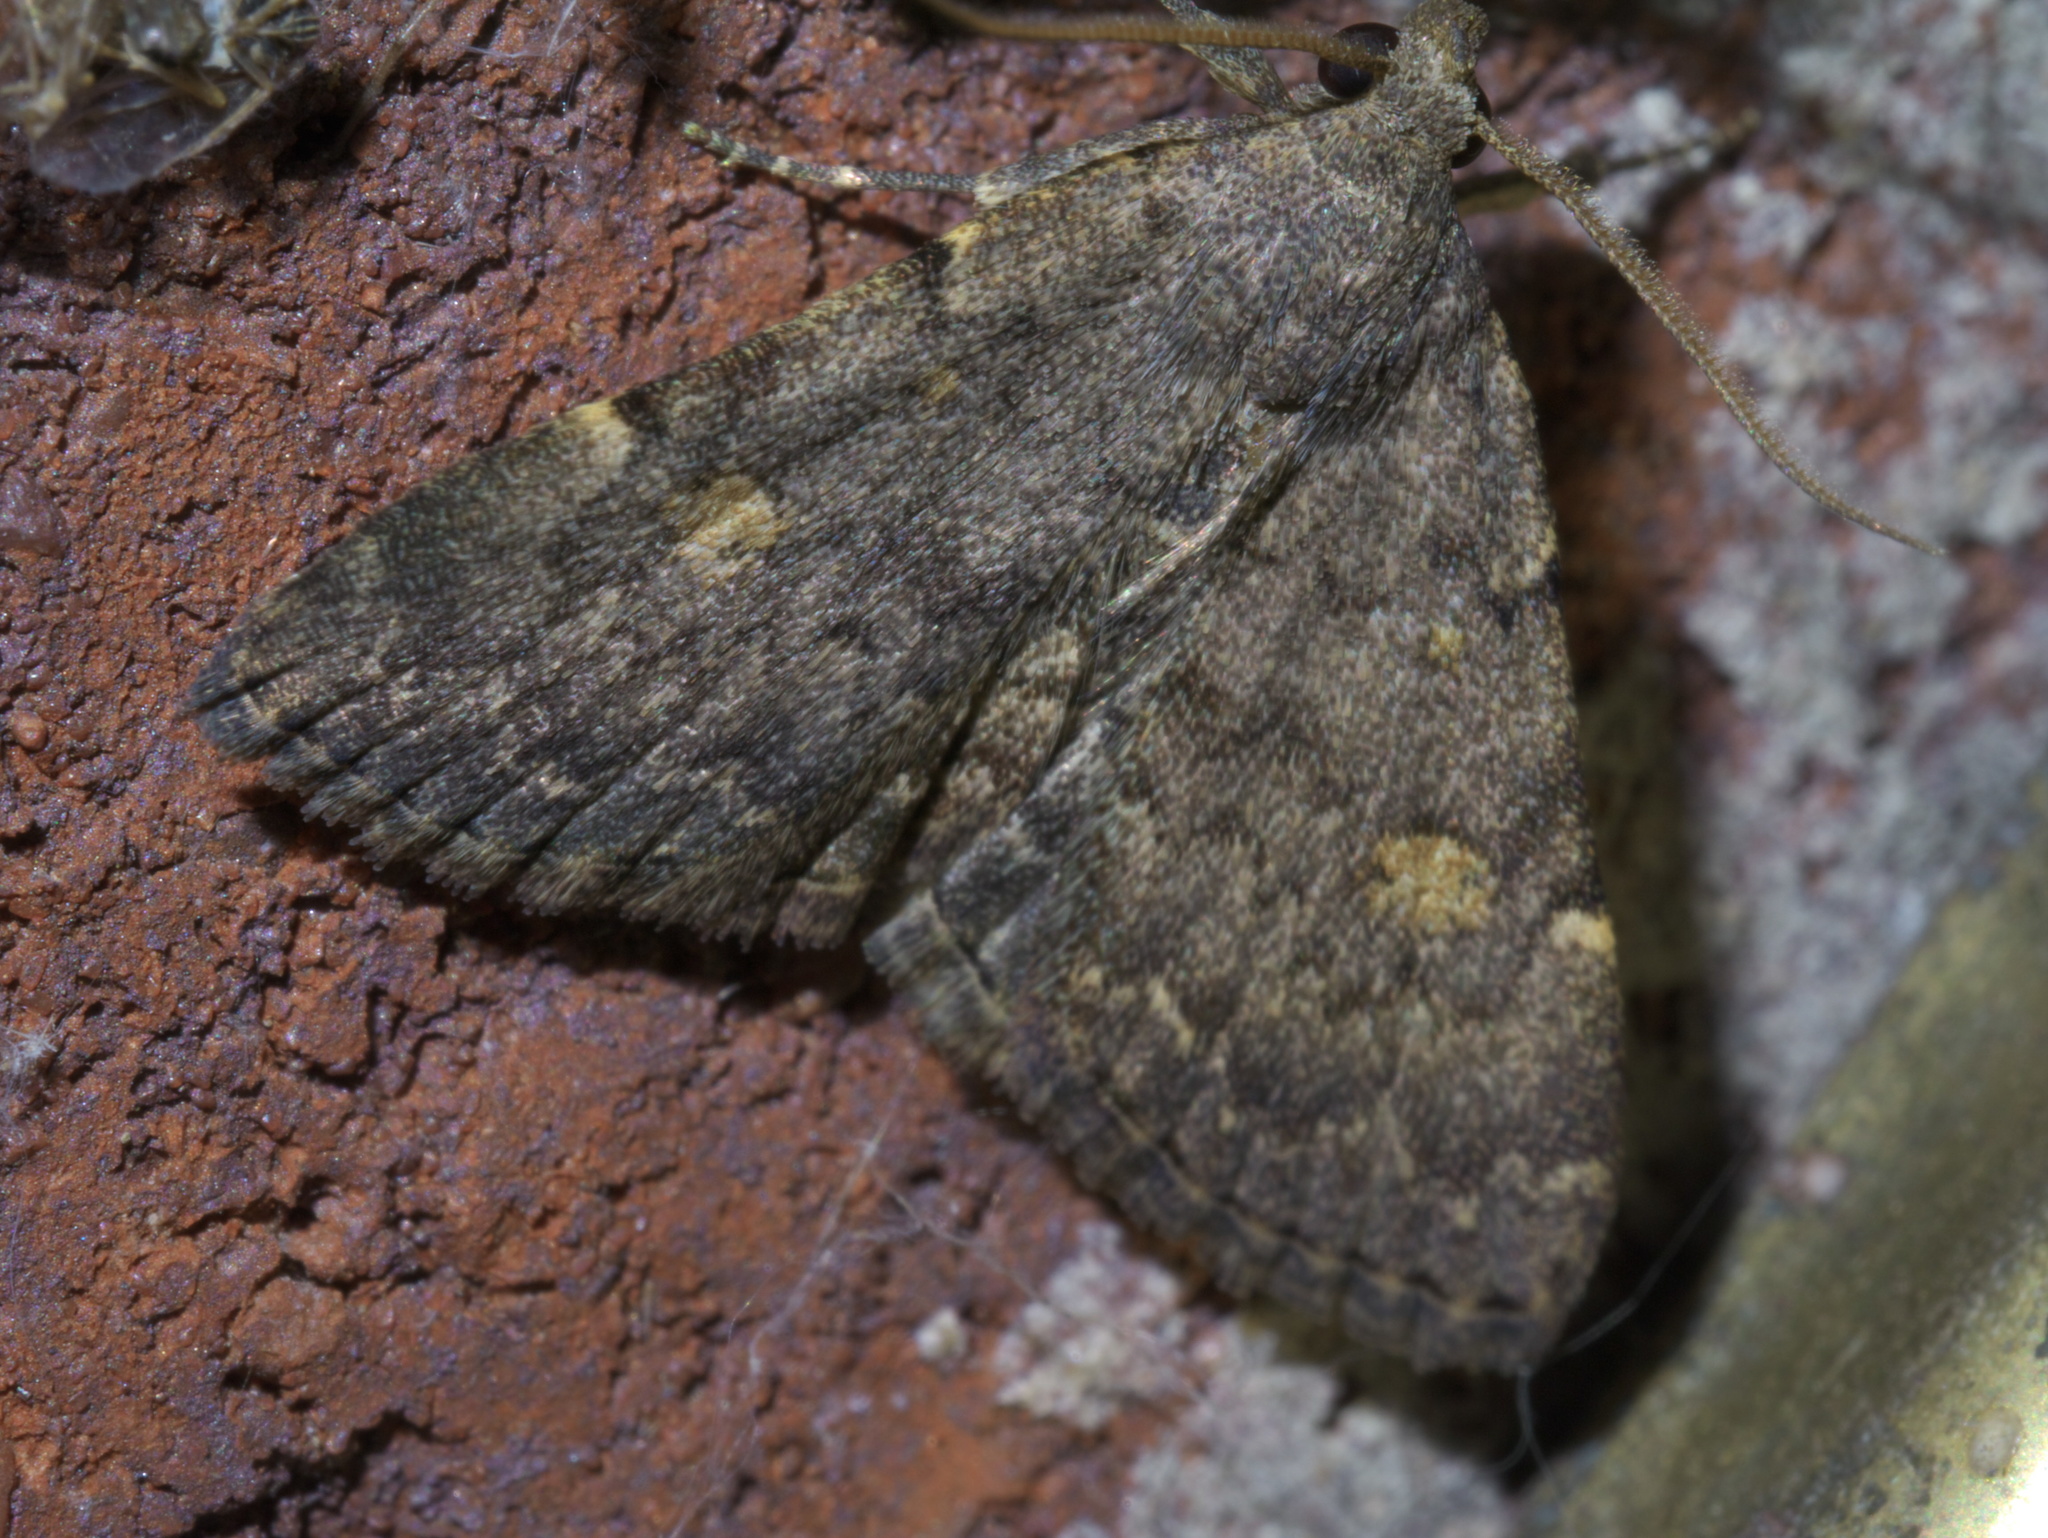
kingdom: Animalia
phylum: Arthropoda
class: Insecta
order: Lepidoptera
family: Erebidae
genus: Idia
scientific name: Idia aemula
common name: Common idia moth
